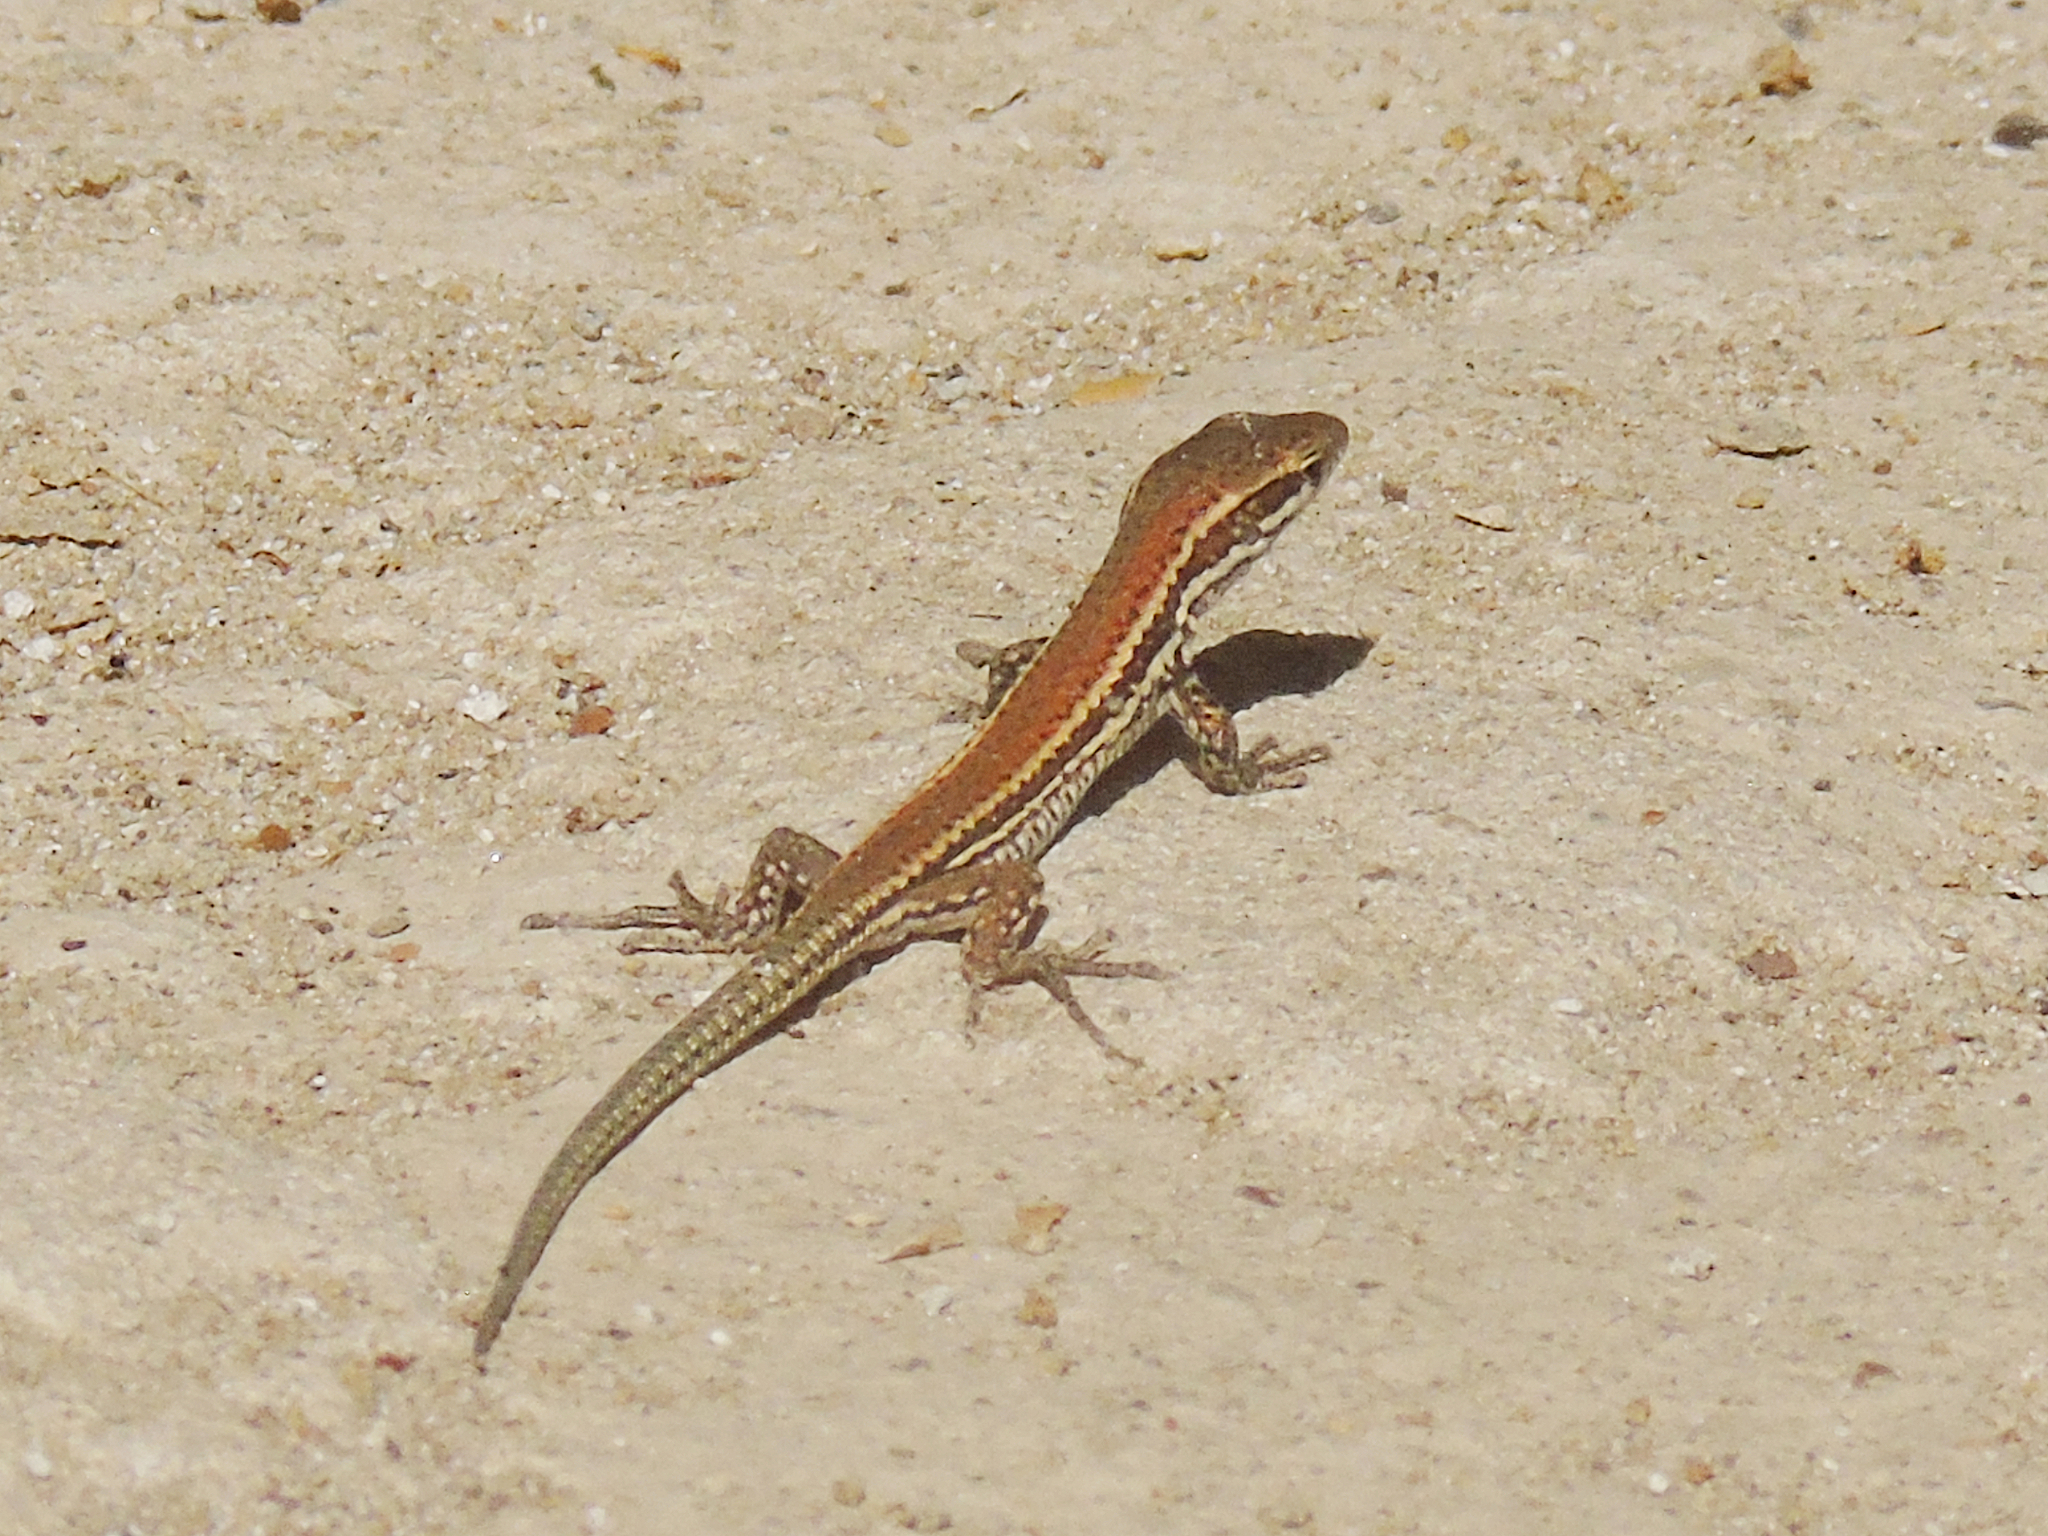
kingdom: Animalia
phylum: Chordata
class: Squamata
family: Lacertidae
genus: Podarcis
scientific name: Podarcis muralis
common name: Common wall lizard
